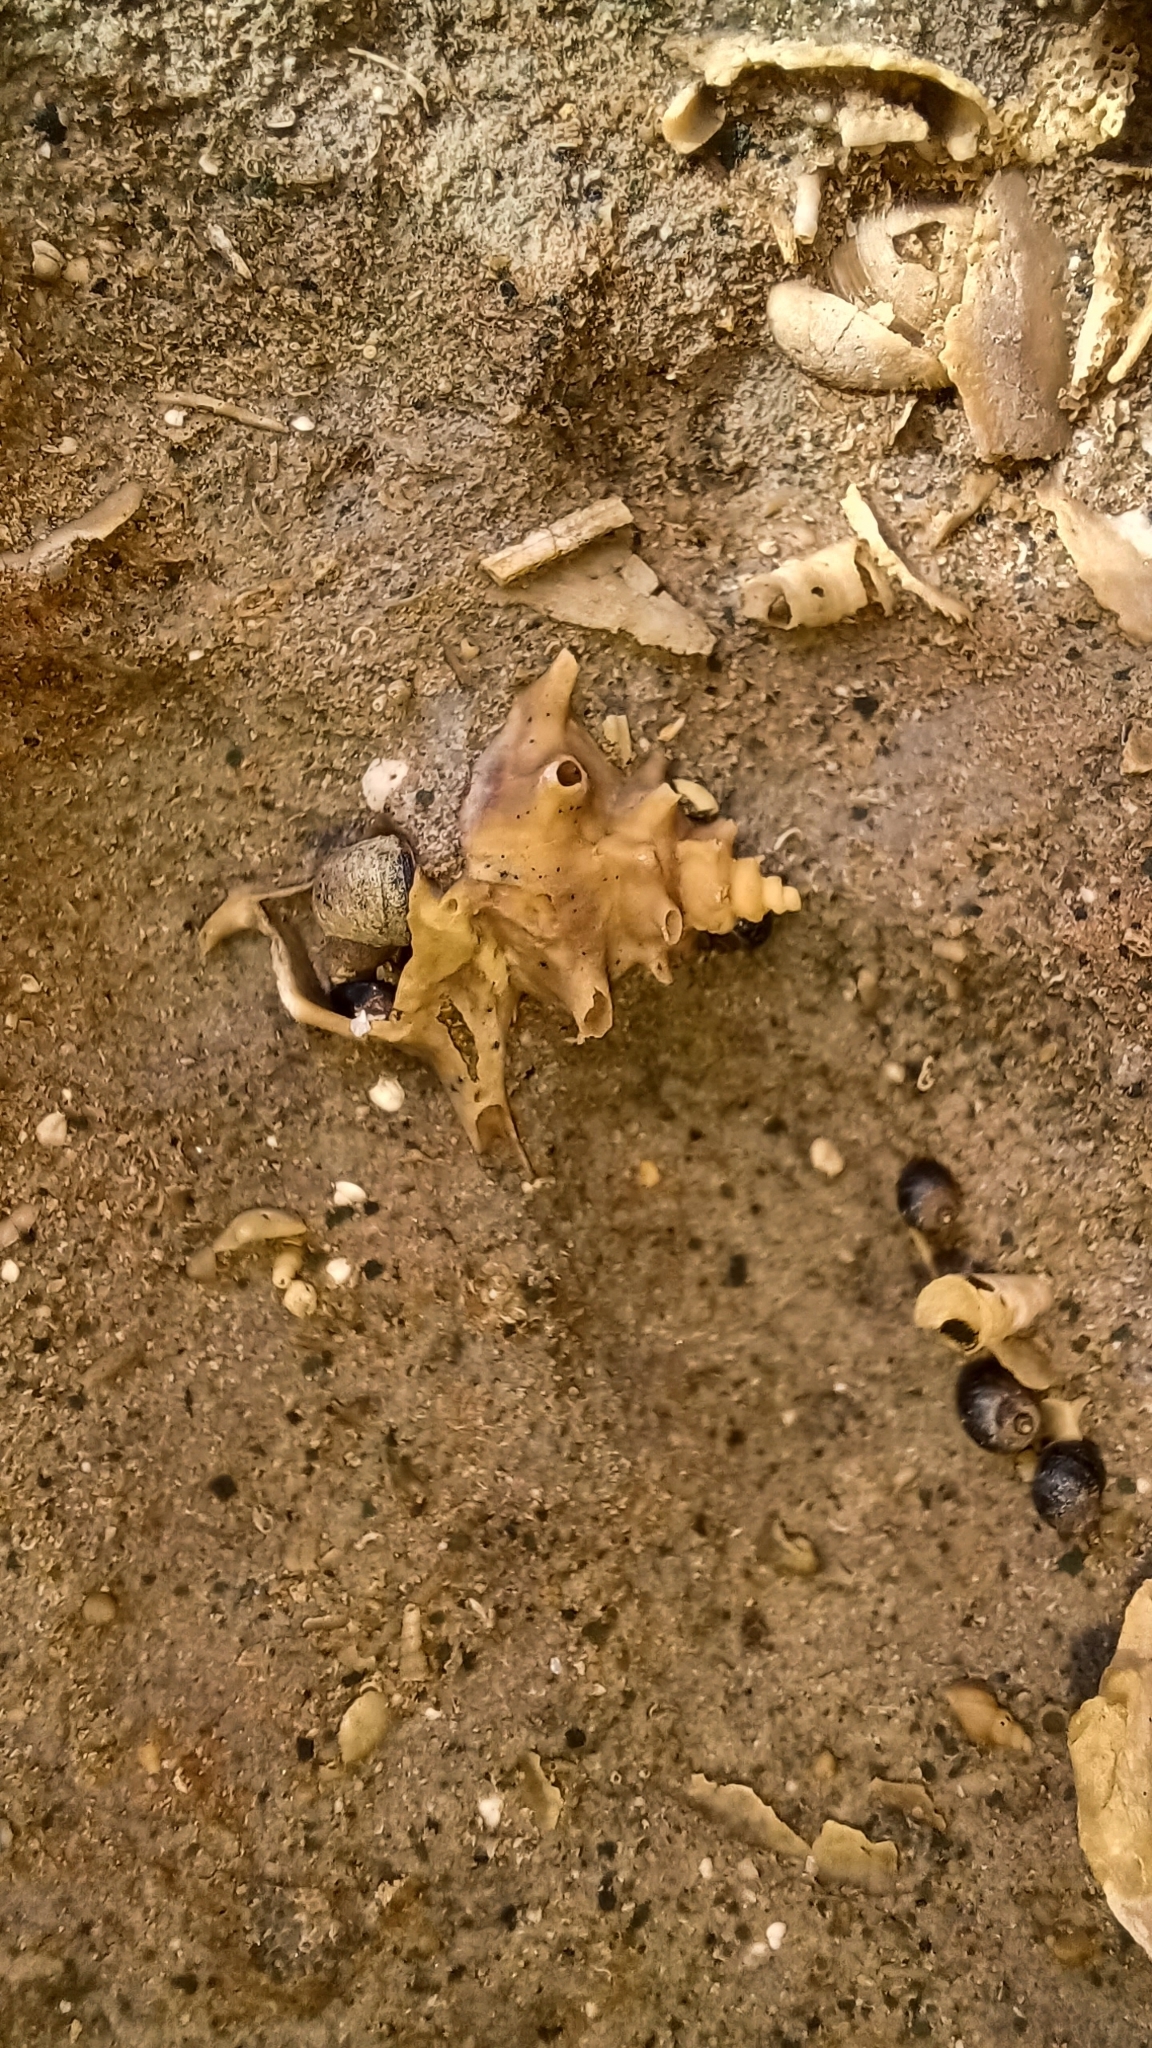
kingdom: Animalia
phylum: Mollusca
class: Gastropoda
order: Littorinimorpha
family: Littorinidae
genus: Afrolittorina
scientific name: Afrolittorina praetermissa
